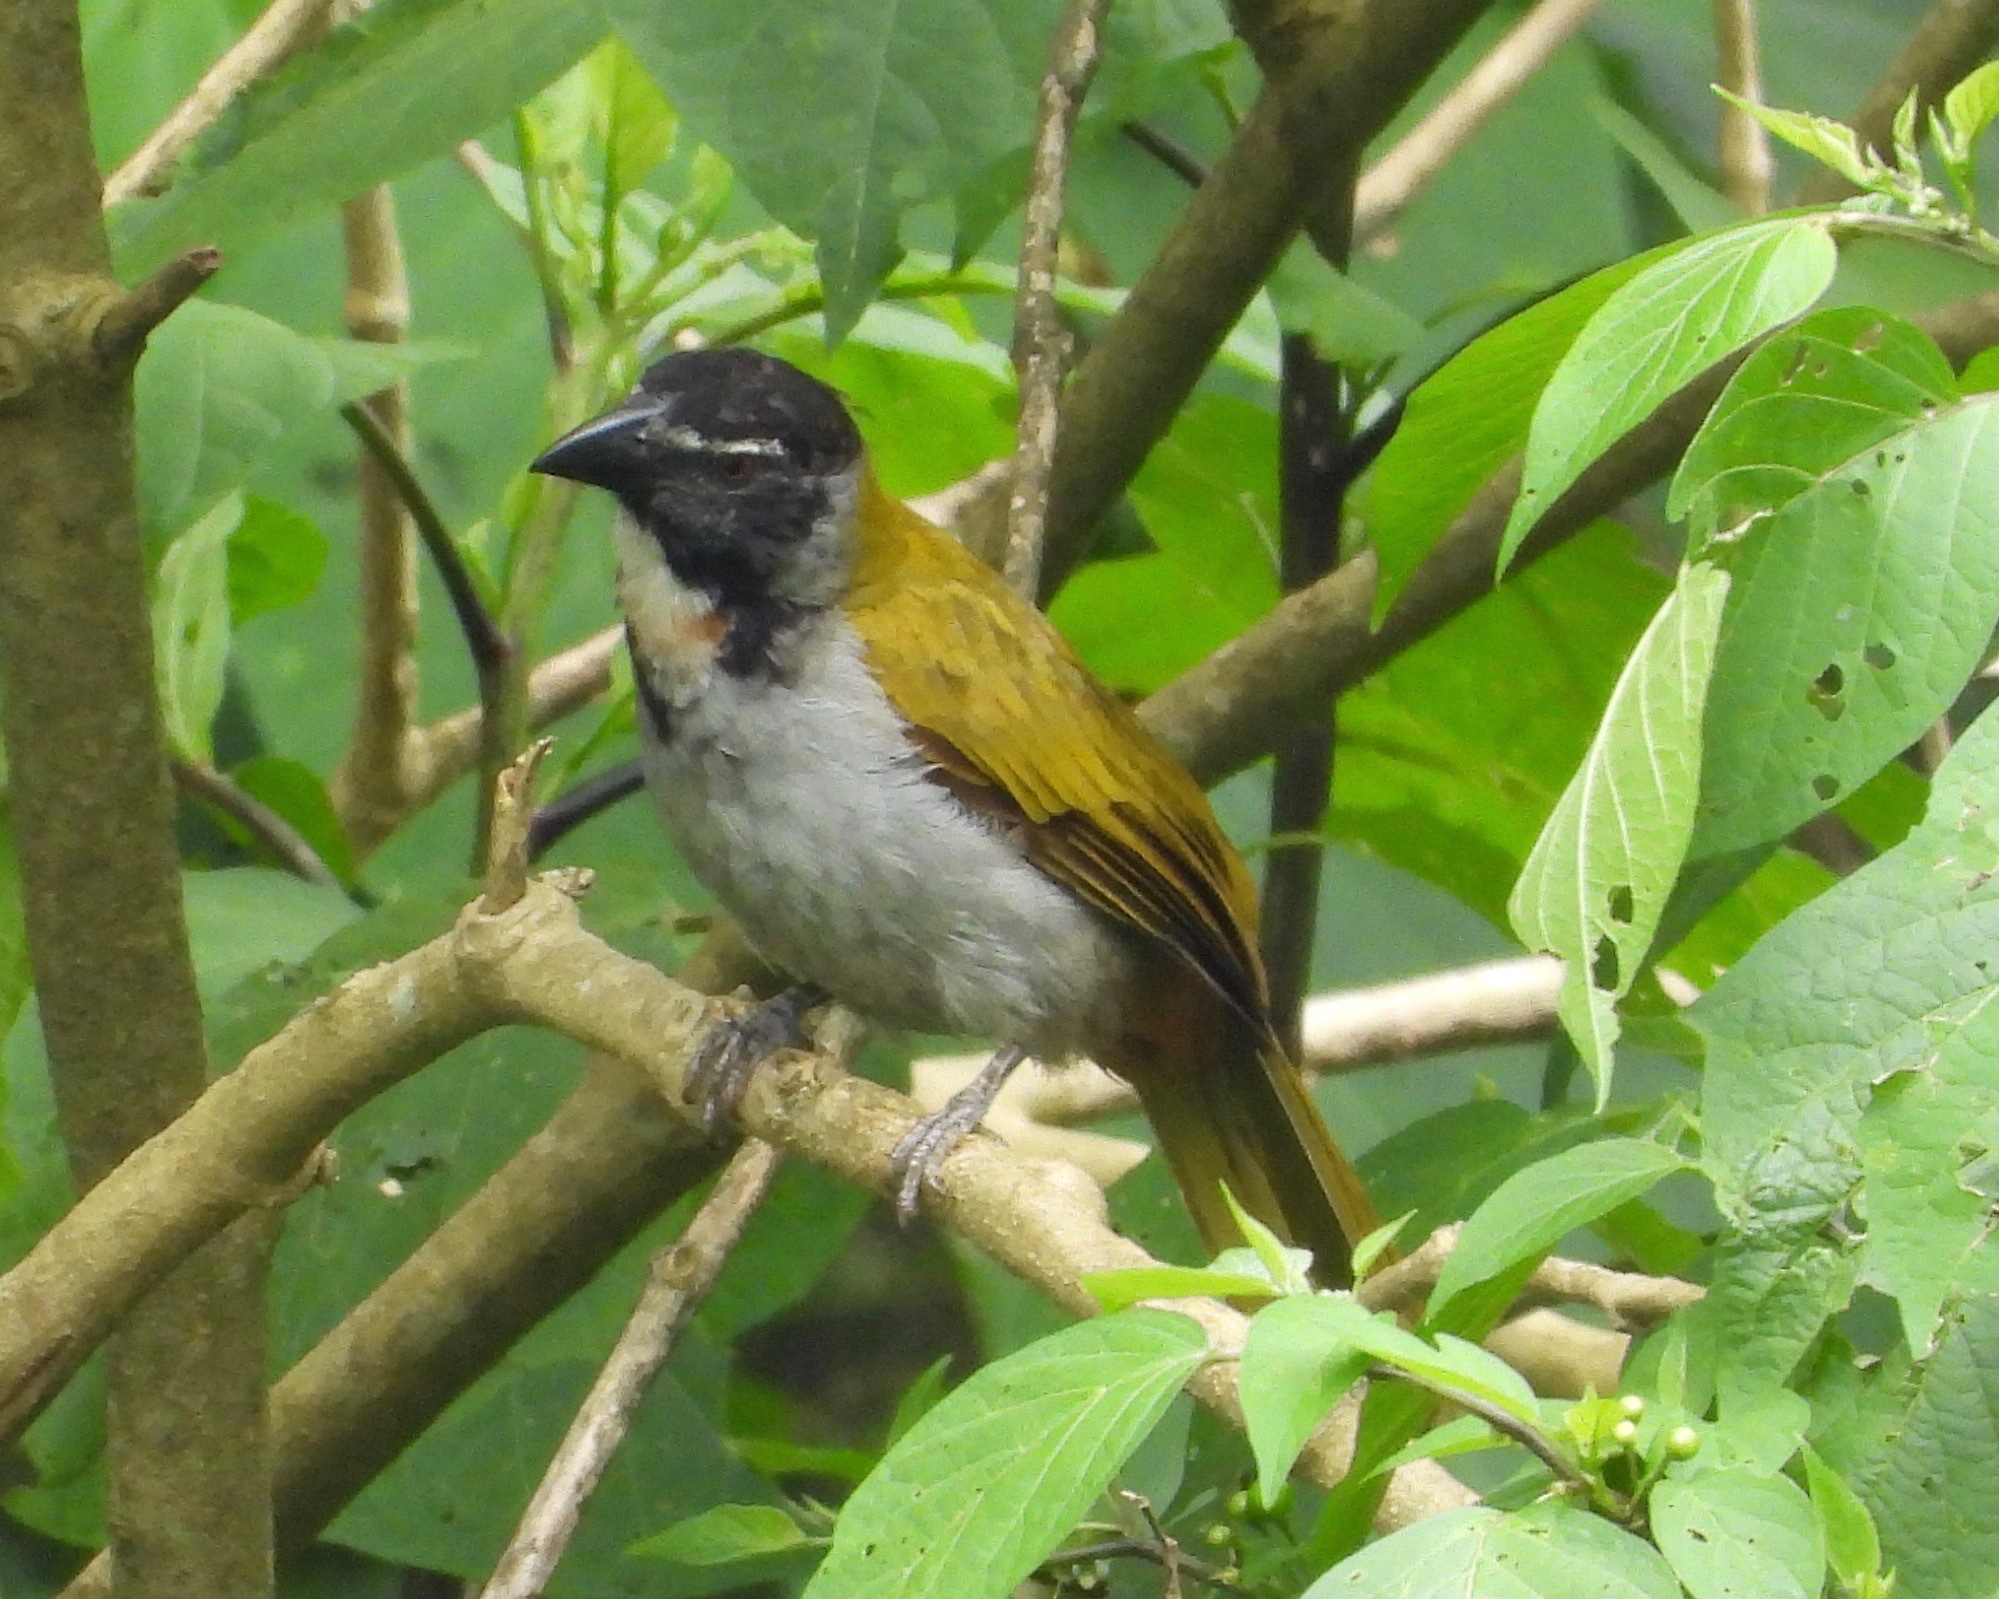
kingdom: Animalia
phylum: Chordata
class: Aves
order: Passeriformes
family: Thraupidae
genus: Saltator
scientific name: Saltator atriceps
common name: Black-headed saltator
